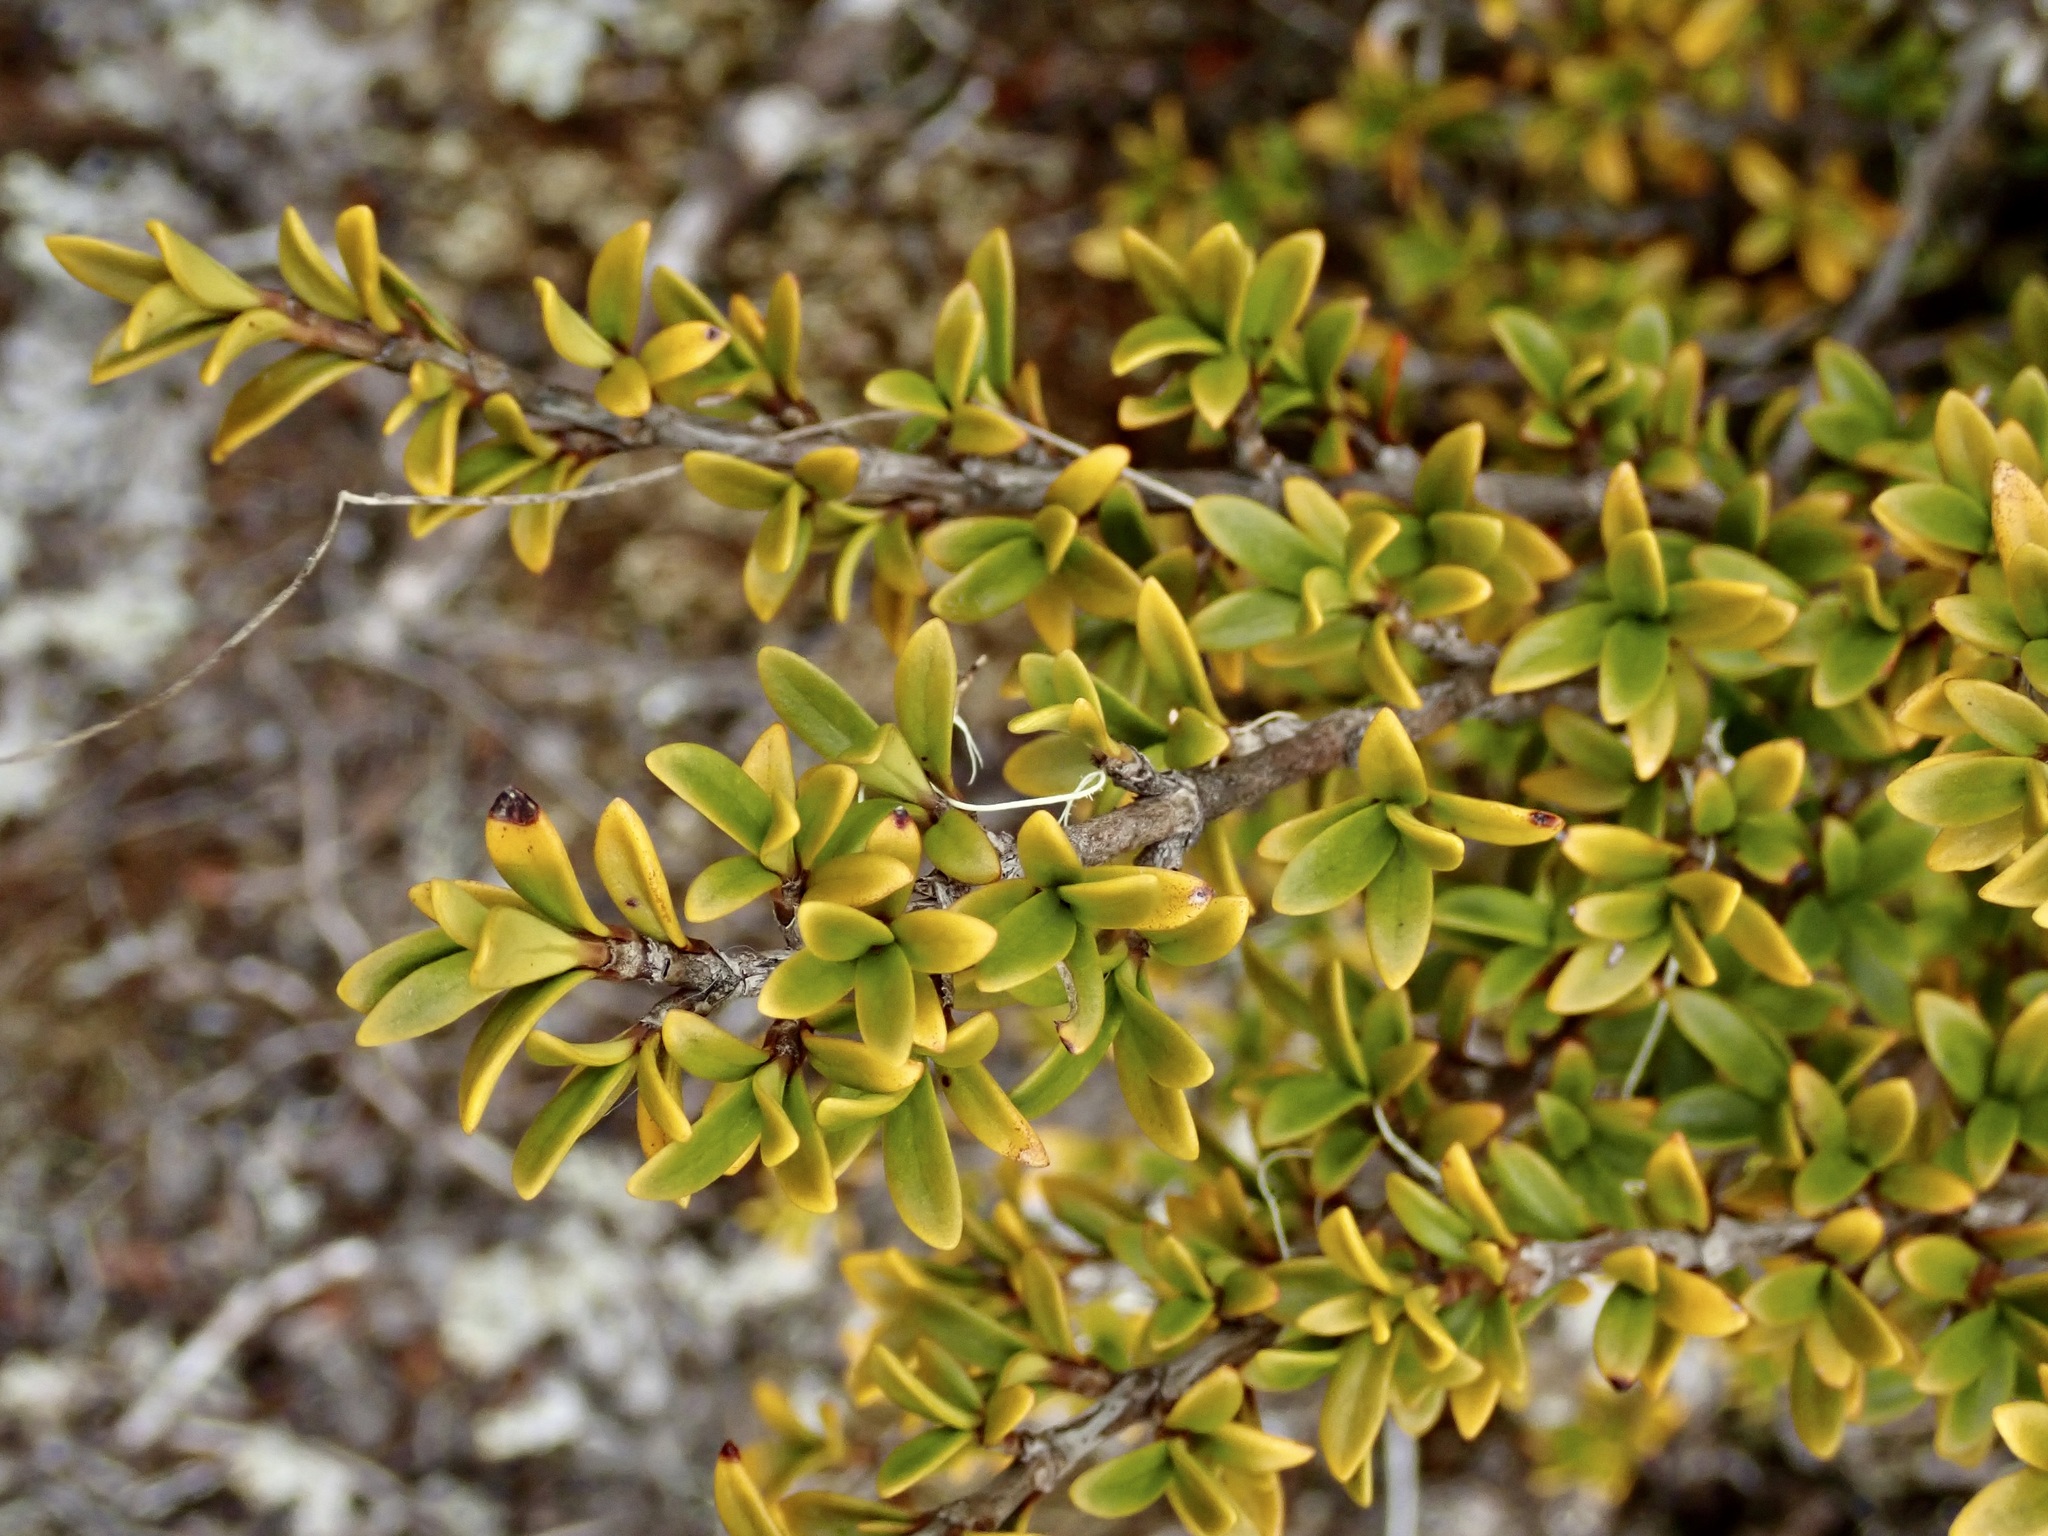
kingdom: Plantae
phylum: Tracheophyta
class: Magnoliopsida
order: Gentianales
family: Rubiaceae
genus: Coprosma
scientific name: Coprosma pseudocuneata
